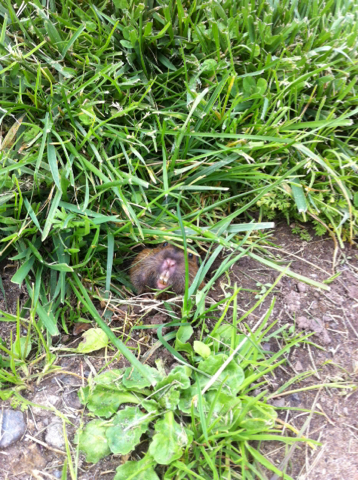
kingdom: Animalia
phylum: Chordata
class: Mammalia
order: Rodentia
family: Geomyidae
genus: Thomomys
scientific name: Thomomys bottae
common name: Botta's pocket gopher
